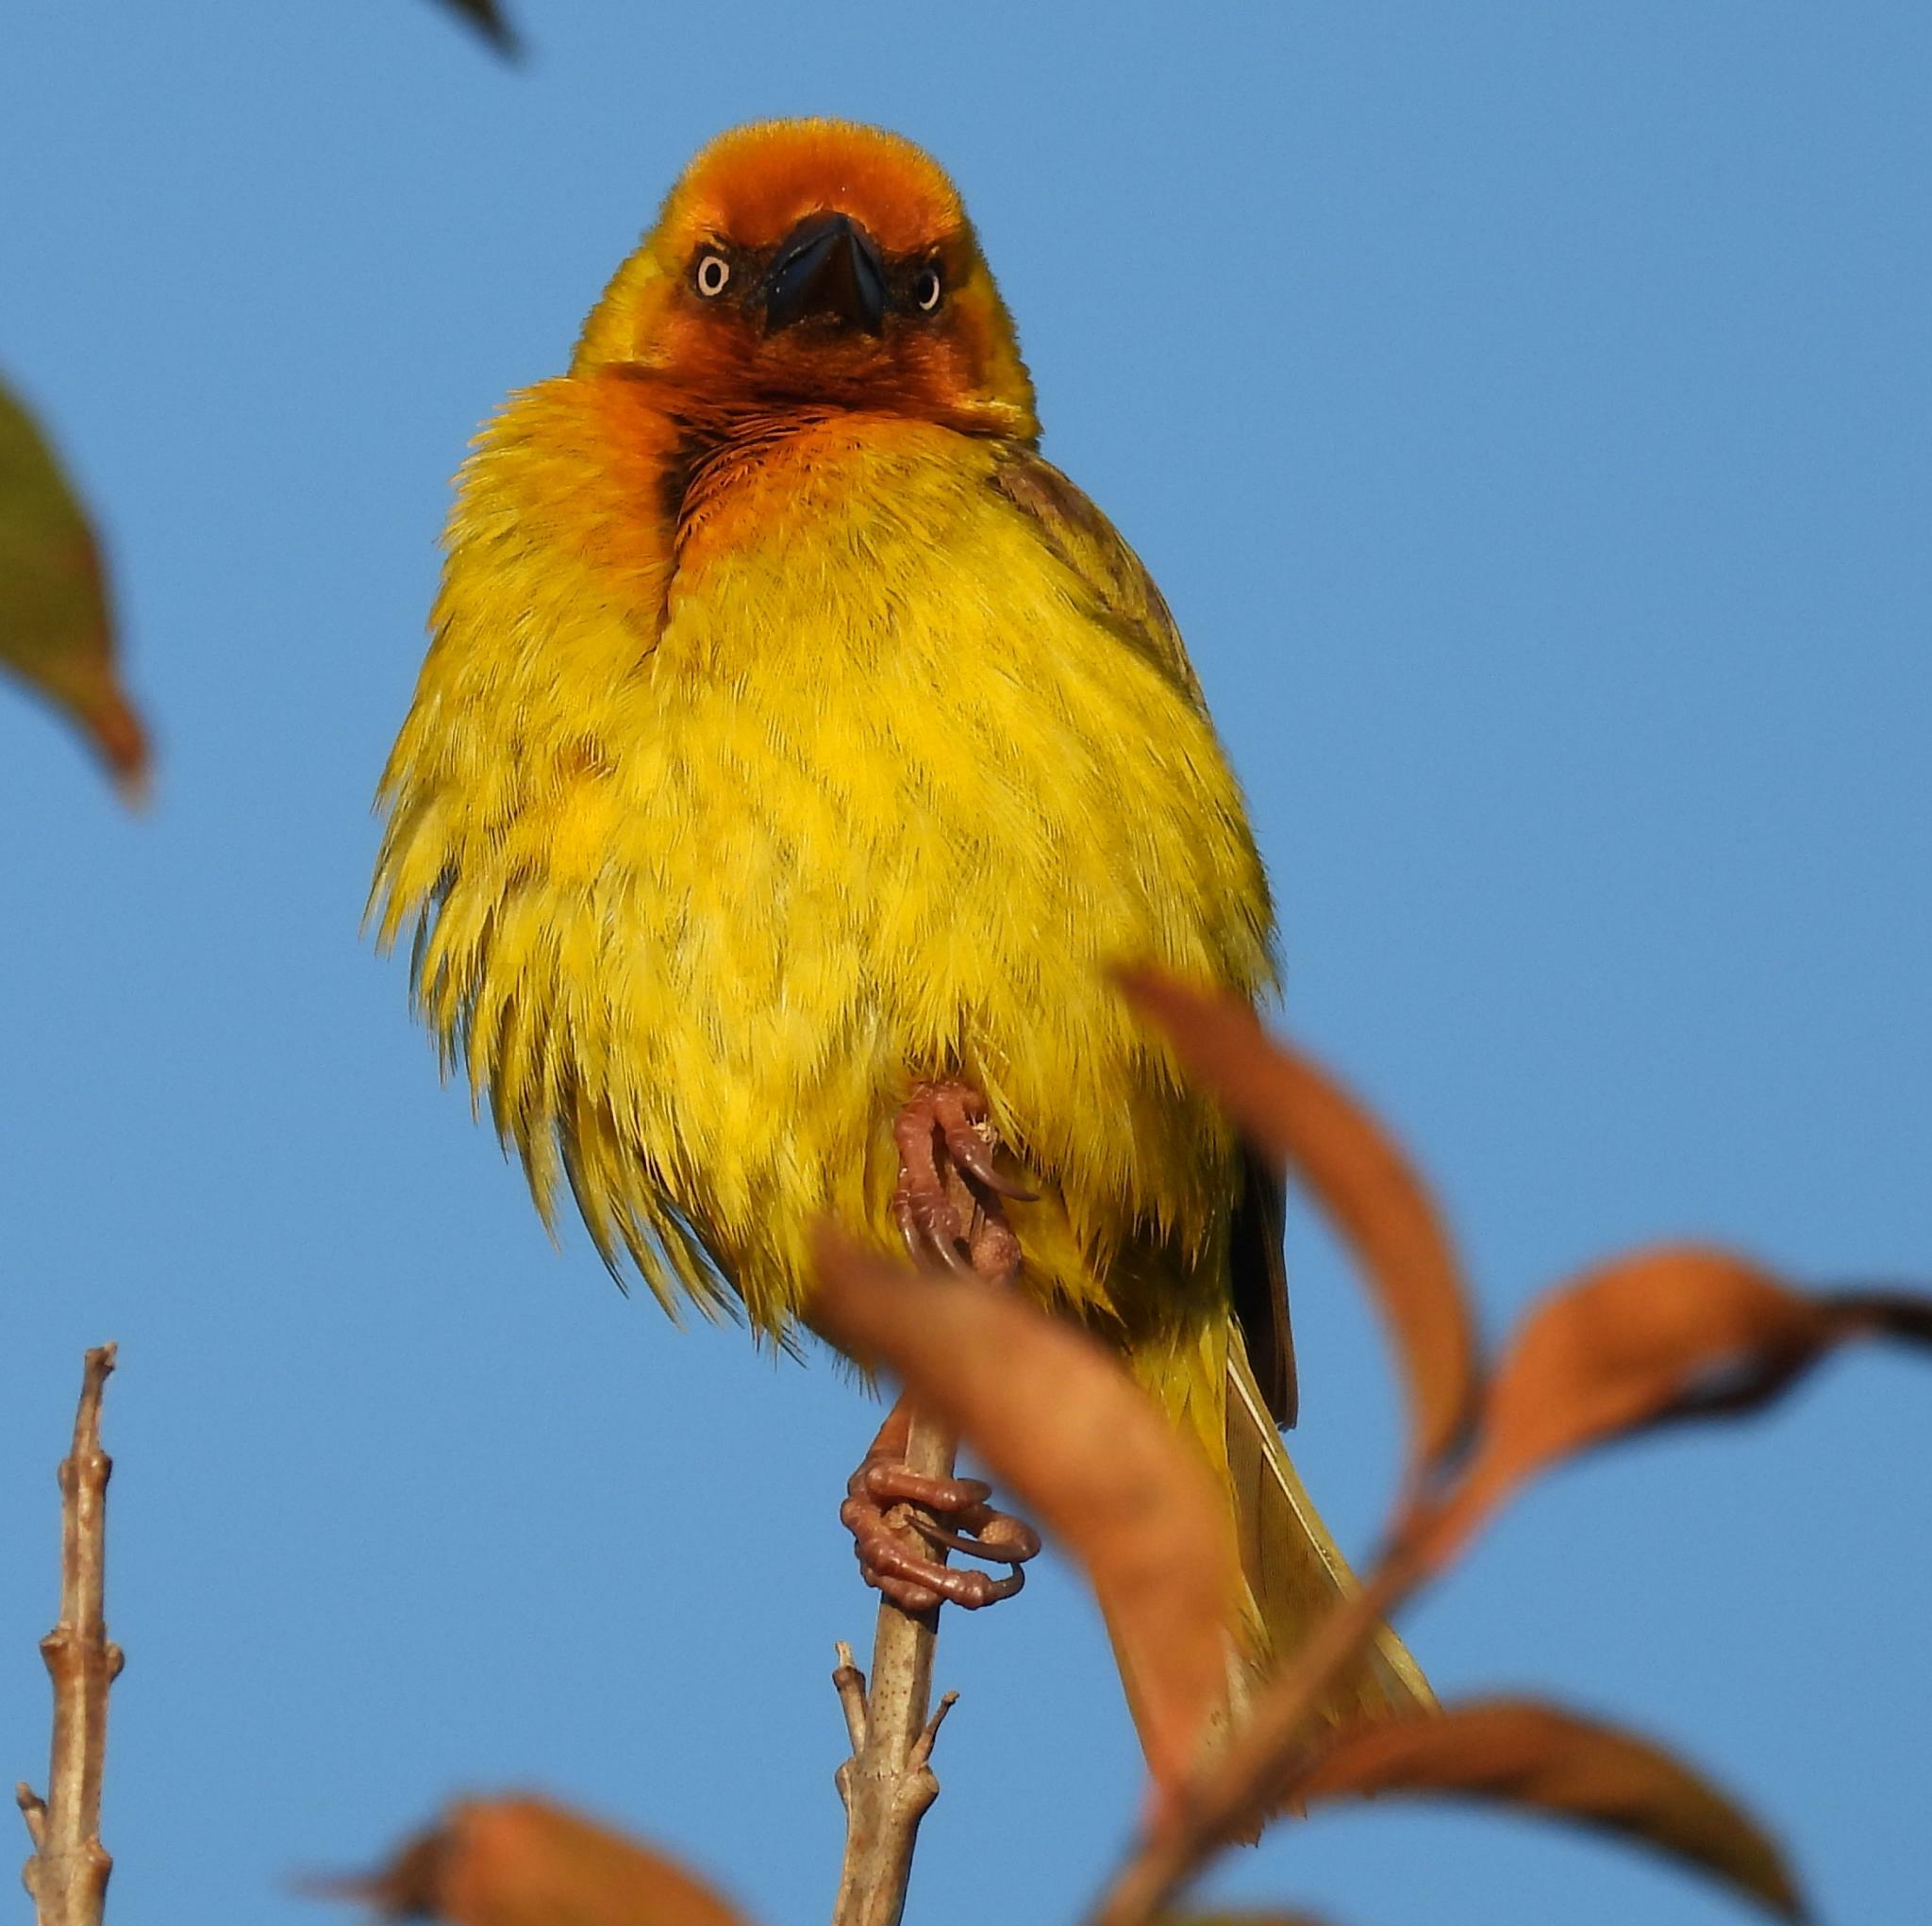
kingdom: Animalia
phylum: Chordata
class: Aves
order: Passeriformes
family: Ploceidae
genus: Ploceus
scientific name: Ploceus capensis
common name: Cape weaver
